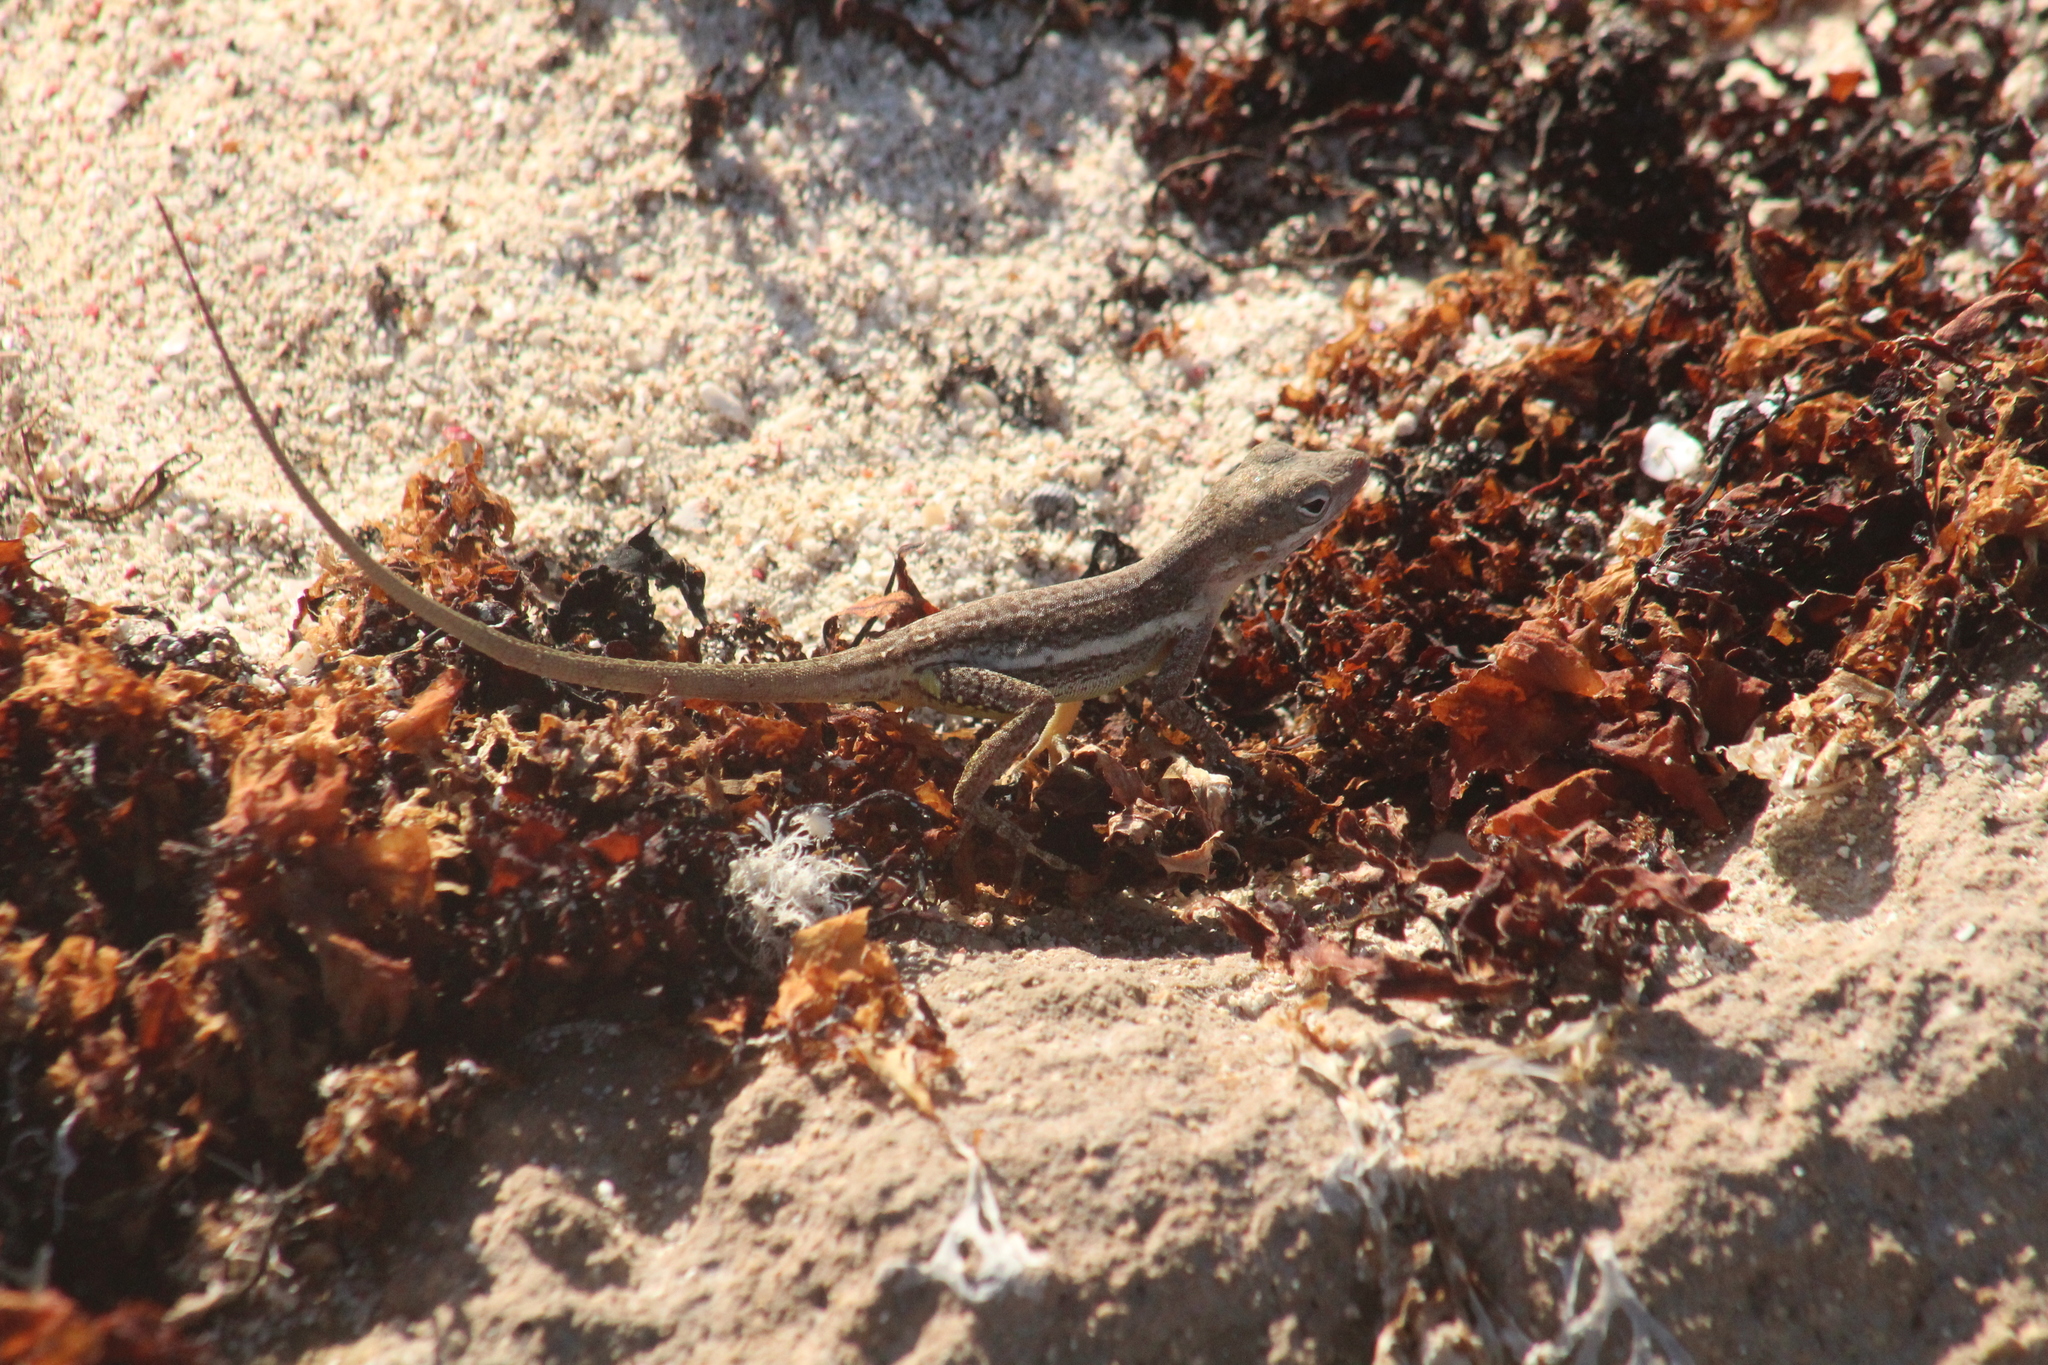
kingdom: Animalia
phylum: Chordata
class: Squamata
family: Dactyloidae
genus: Anolis
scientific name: Anolis gingivinus
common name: Anguilla anole
